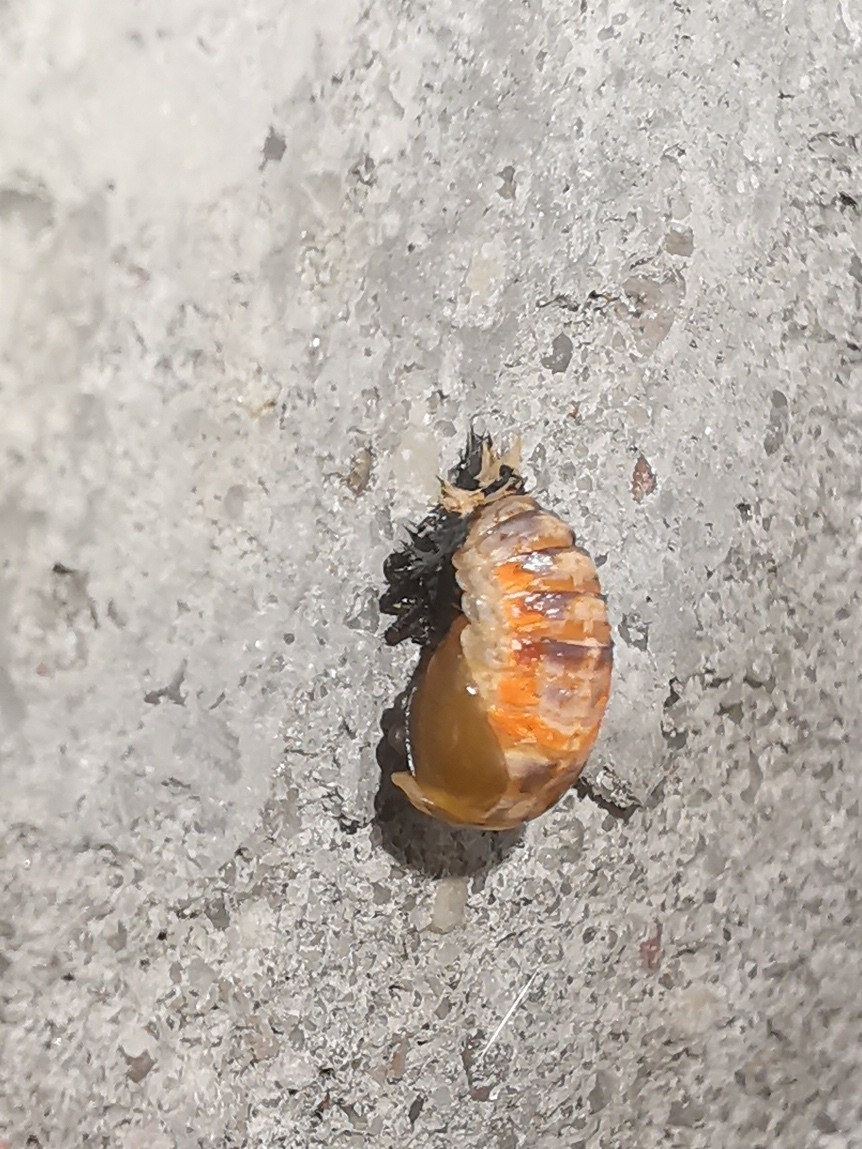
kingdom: Animalia
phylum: Arthropoda
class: Insecta
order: Coleoptera
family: Coccinellidae
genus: Harmonia
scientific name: Harmonia axyridis
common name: Harlequin ladybird
